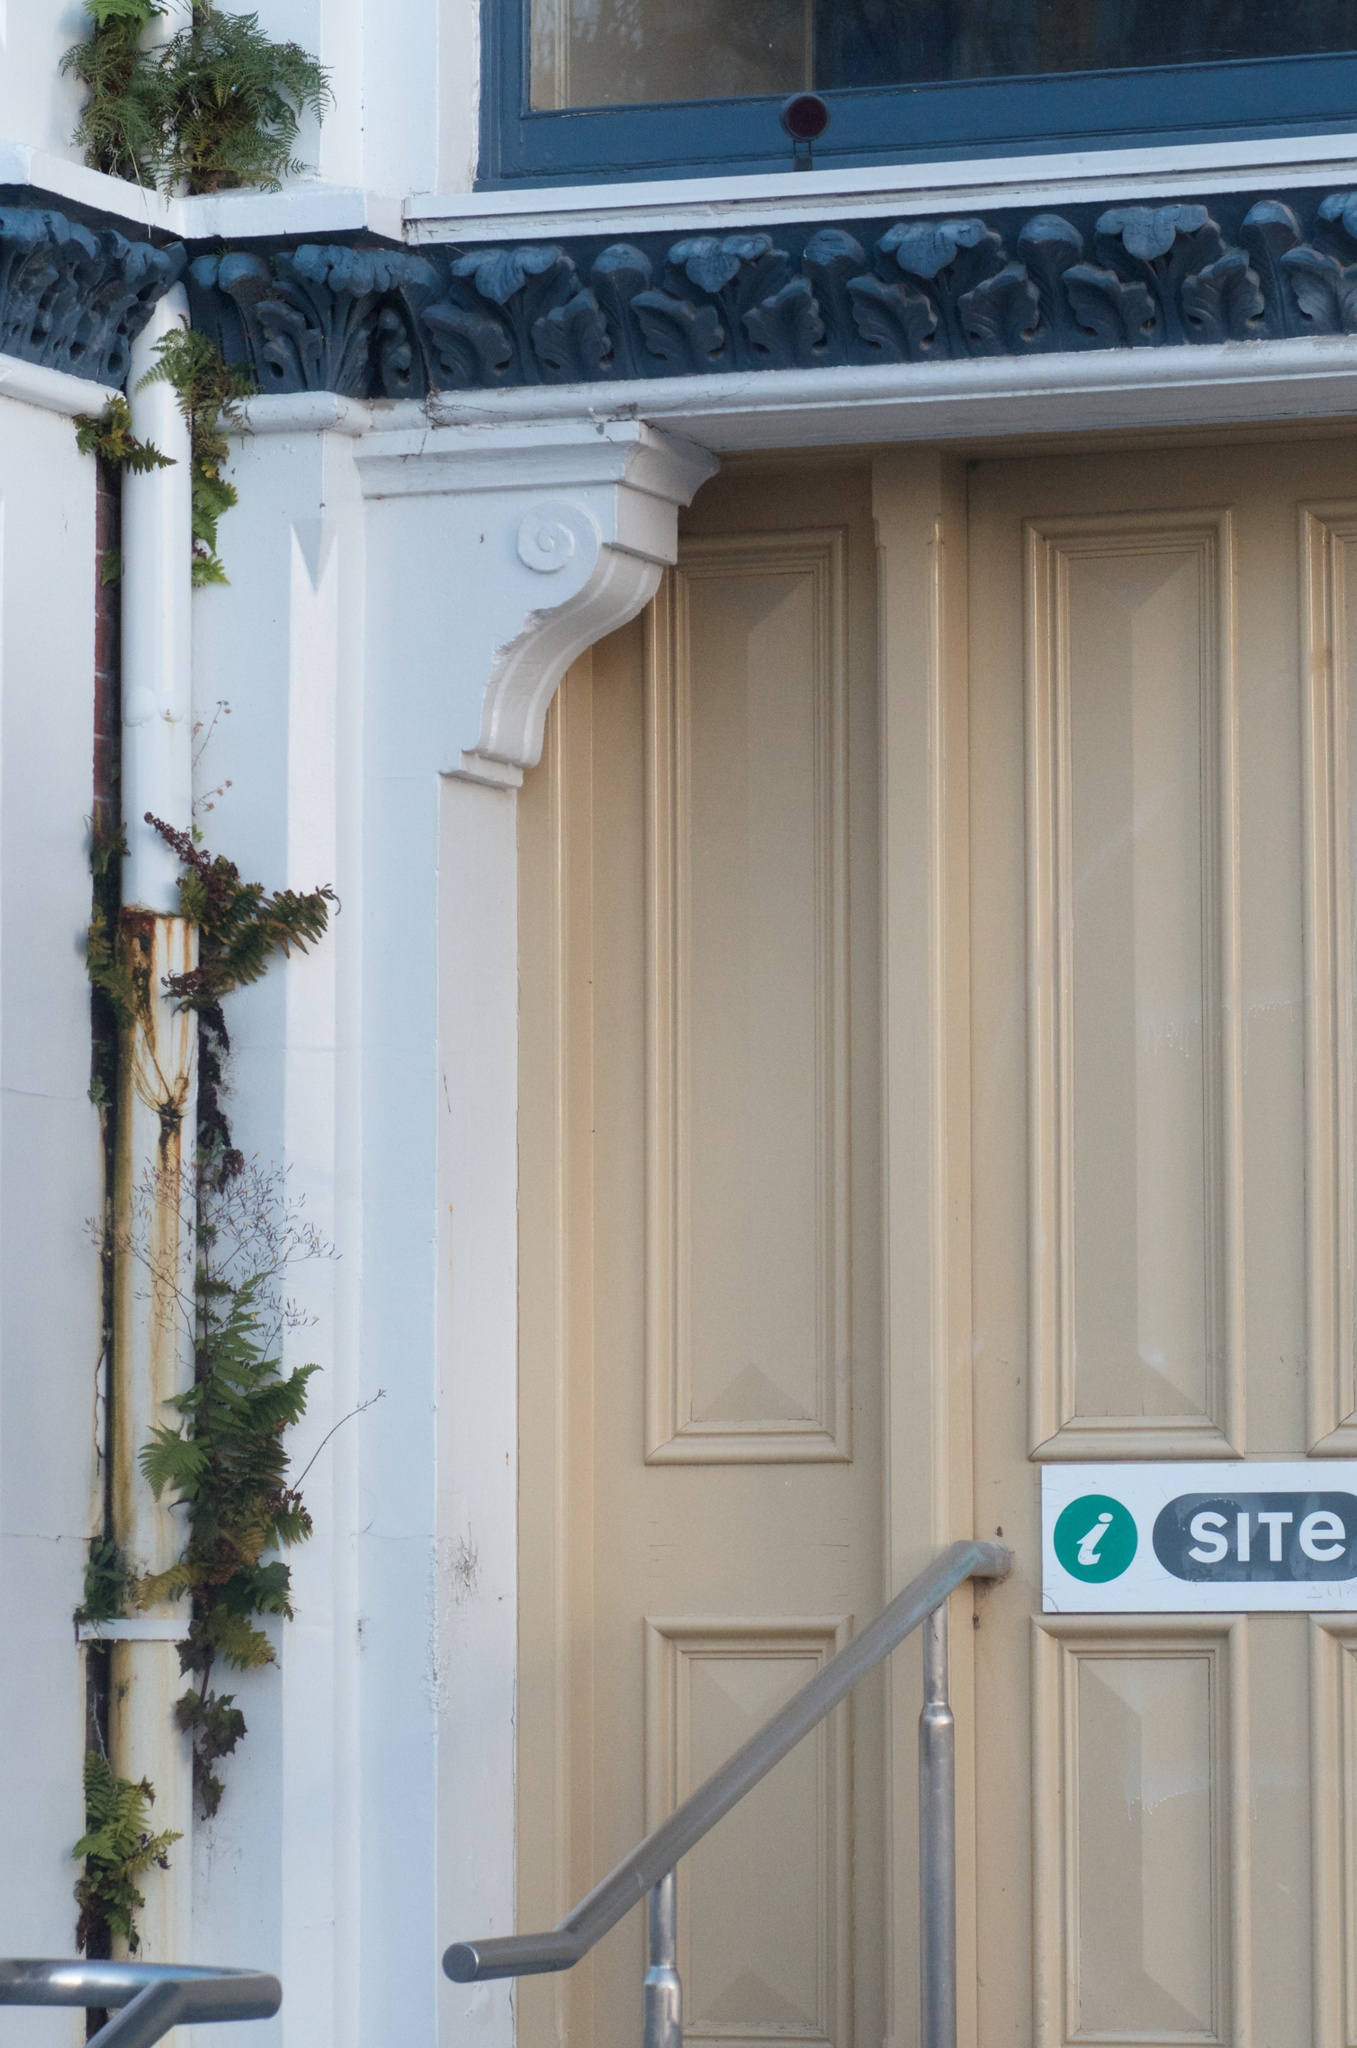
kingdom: Plantae
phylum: Tracheophyta
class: Polypodiopsida
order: Polypodiales
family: Dryopteridaceae
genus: Dryopteris
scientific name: Dryopteris filix-mas
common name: Male fern
